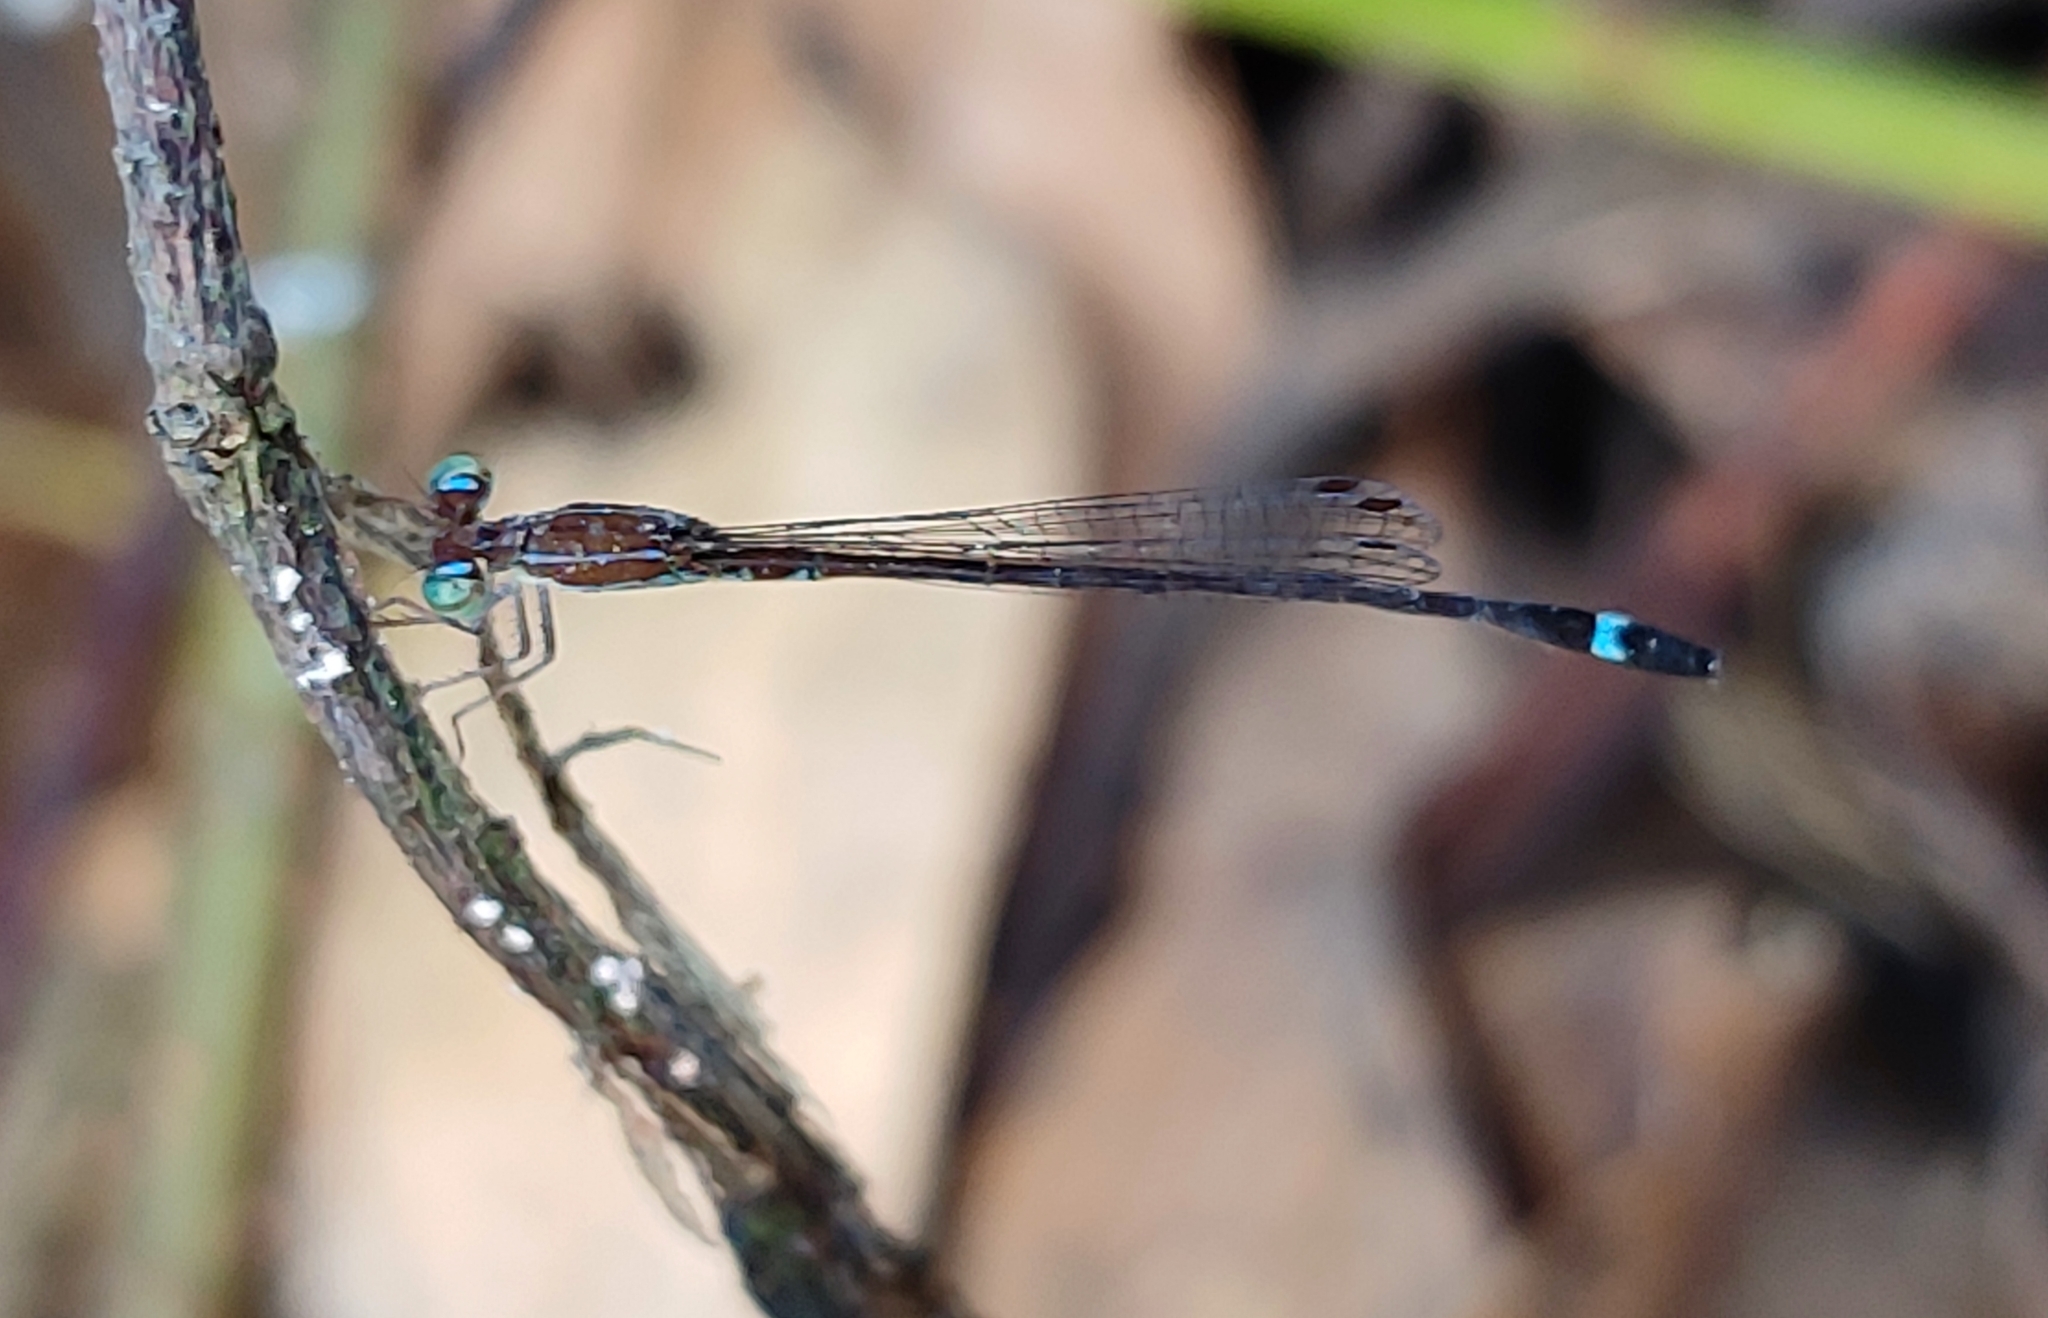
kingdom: Animalia
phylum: Arthropoda
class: Insecta
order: Odonata
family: Coenagrionidae
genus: Mortonagrion
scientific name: Mortonagrion varralli
